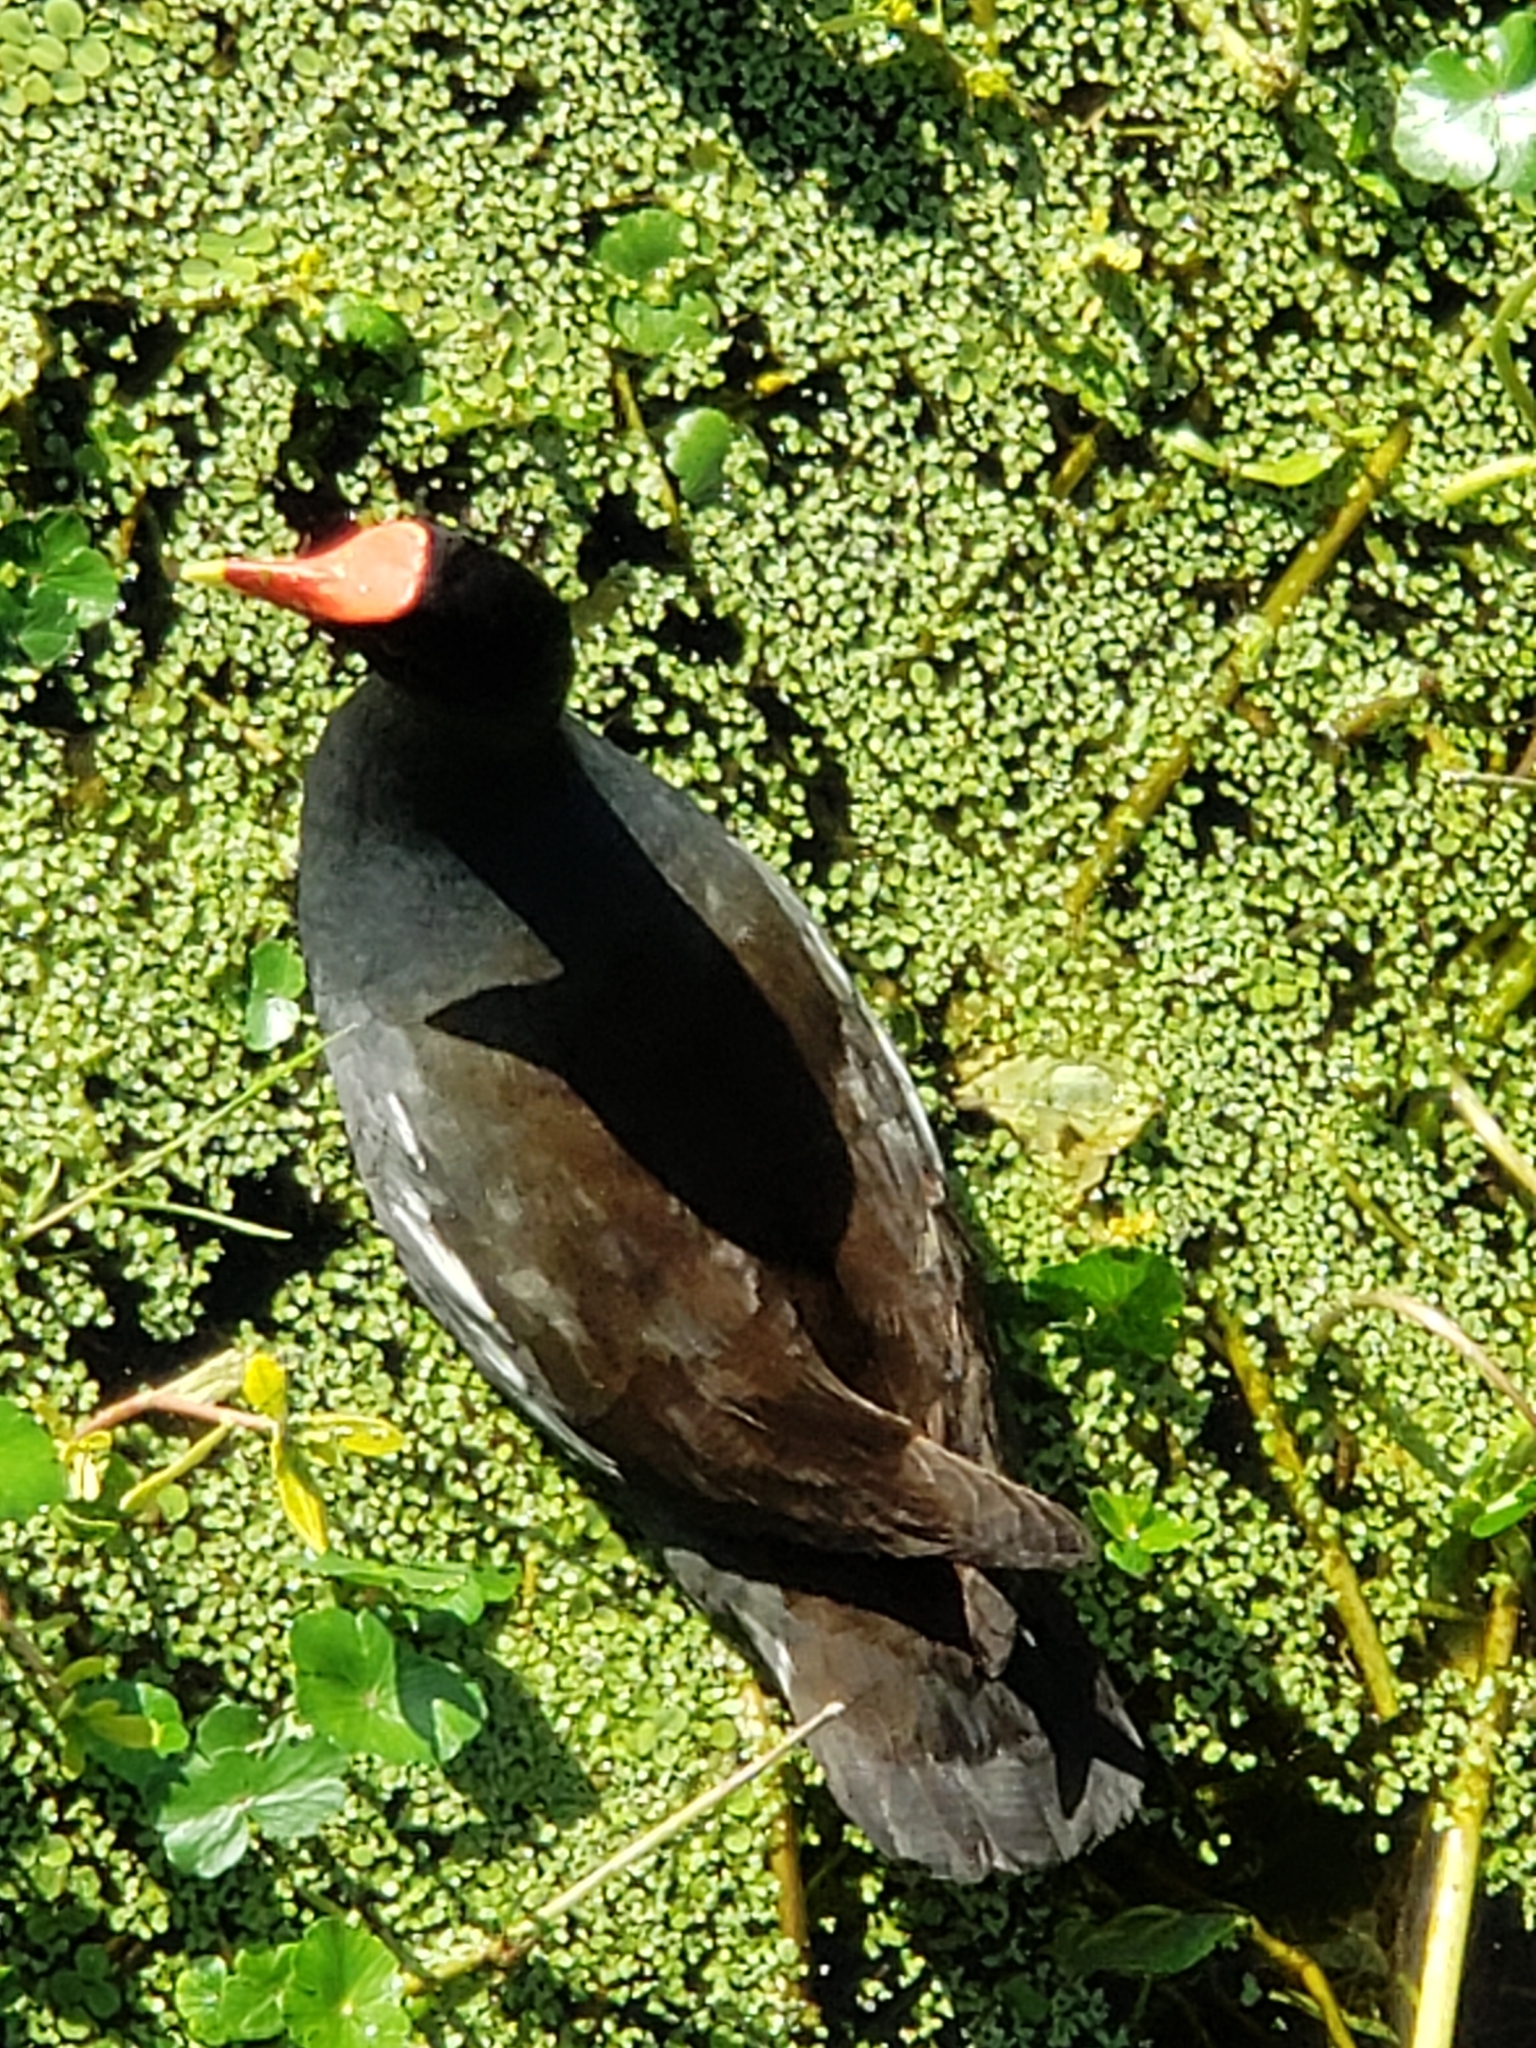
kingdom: Animalia
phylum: Chordata
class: Aves
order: Gruiformes
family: Rallidae
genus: Gallinula
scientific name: Gallinula chloropus
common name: Common moorhen
